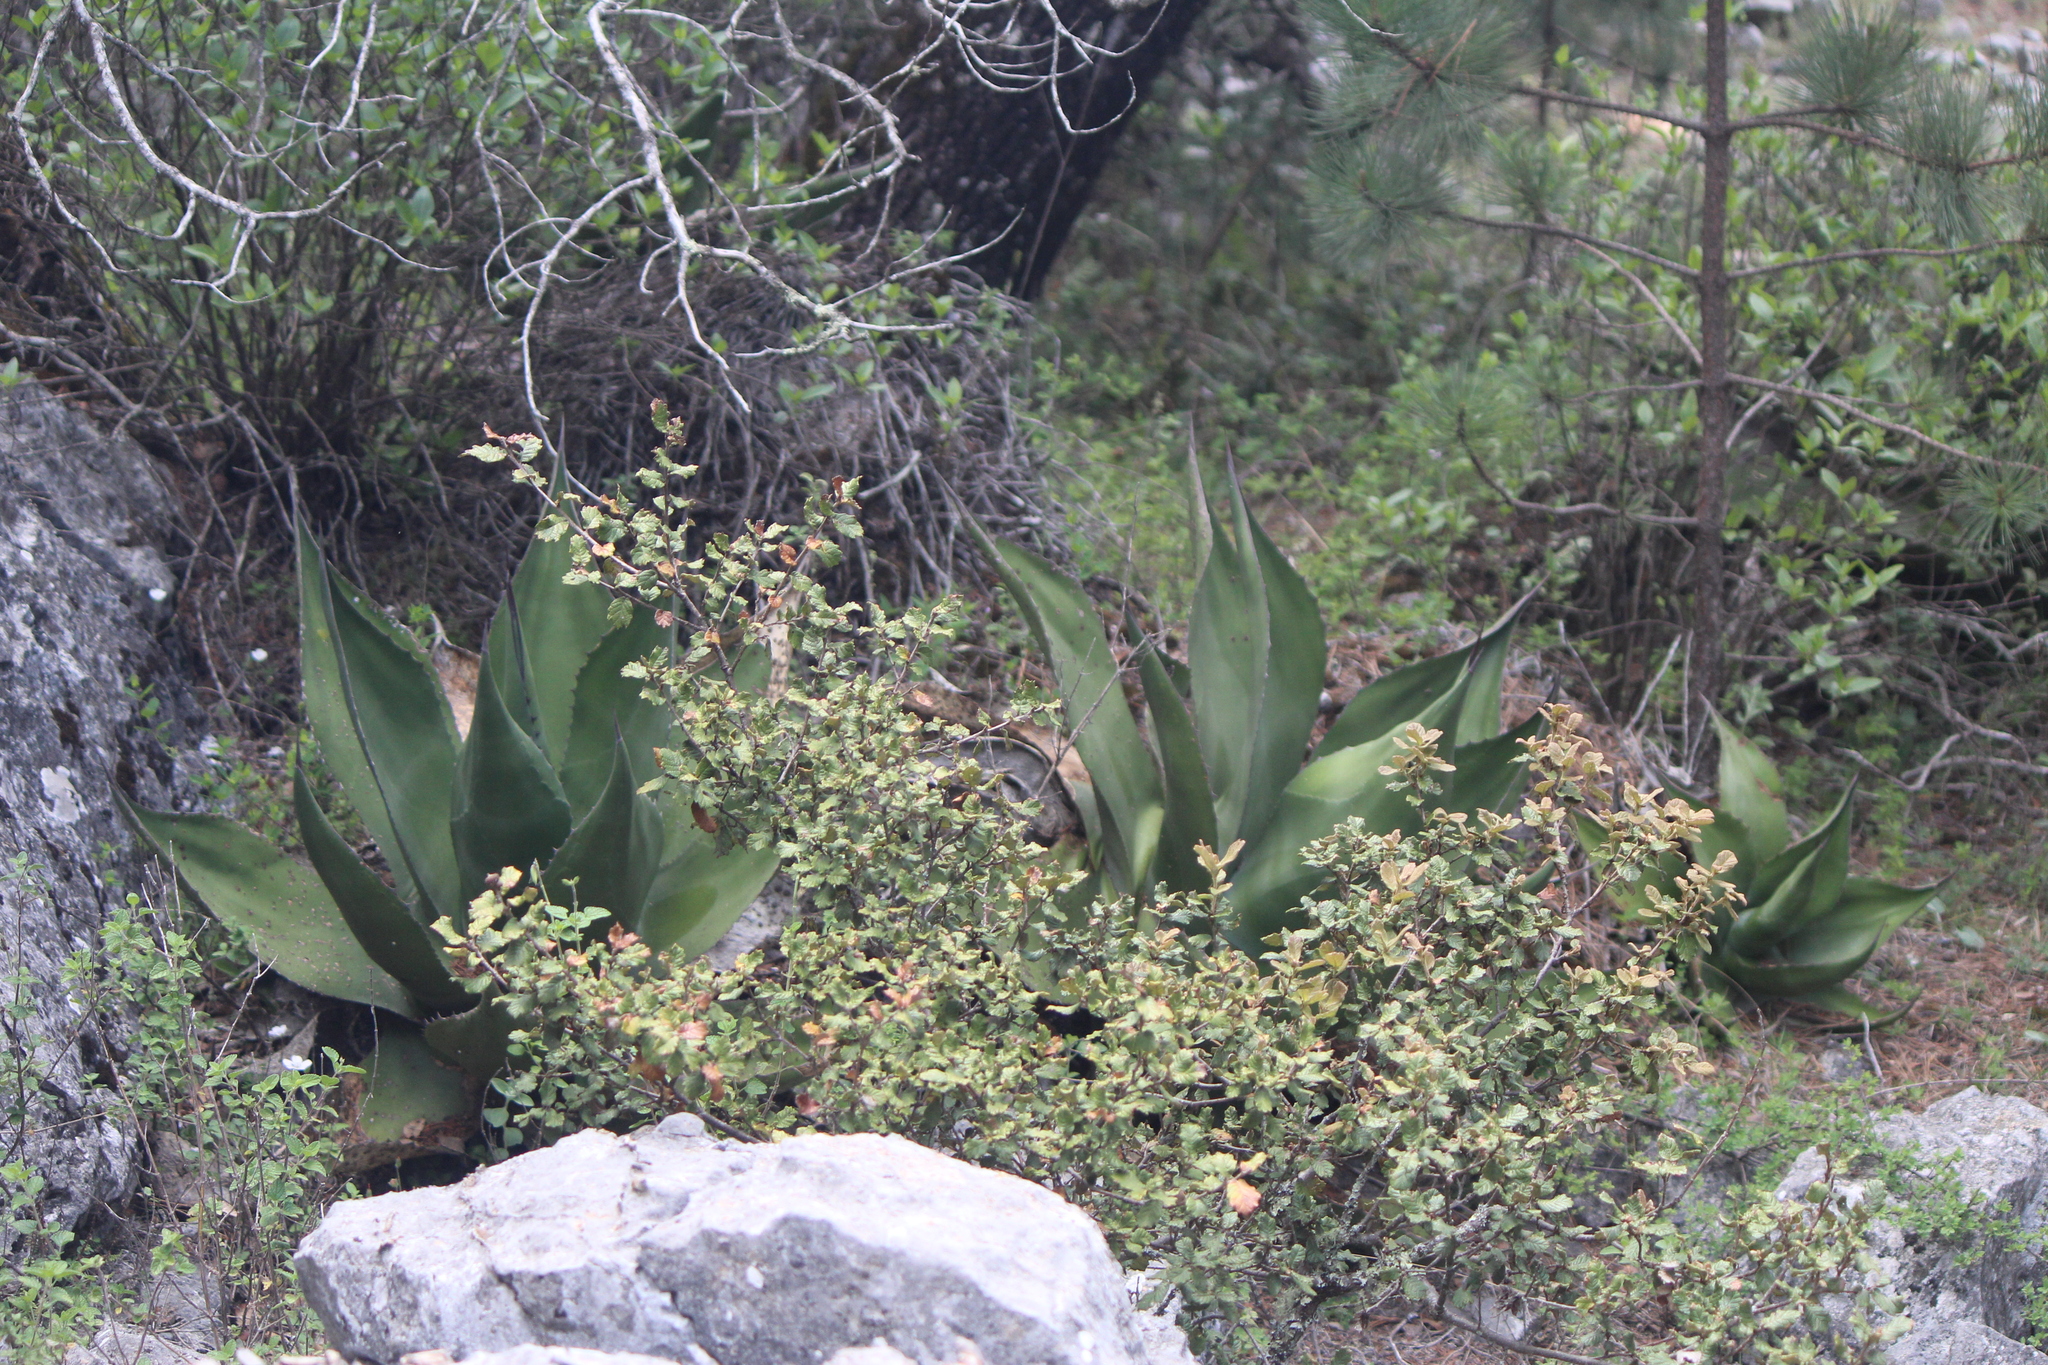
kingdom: Plantae
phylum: Tracheophyta
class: Liliopsida
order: Asparagales
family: Asparagaceae
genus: Agave
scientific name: Agave salmiana
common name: Pulque agave
